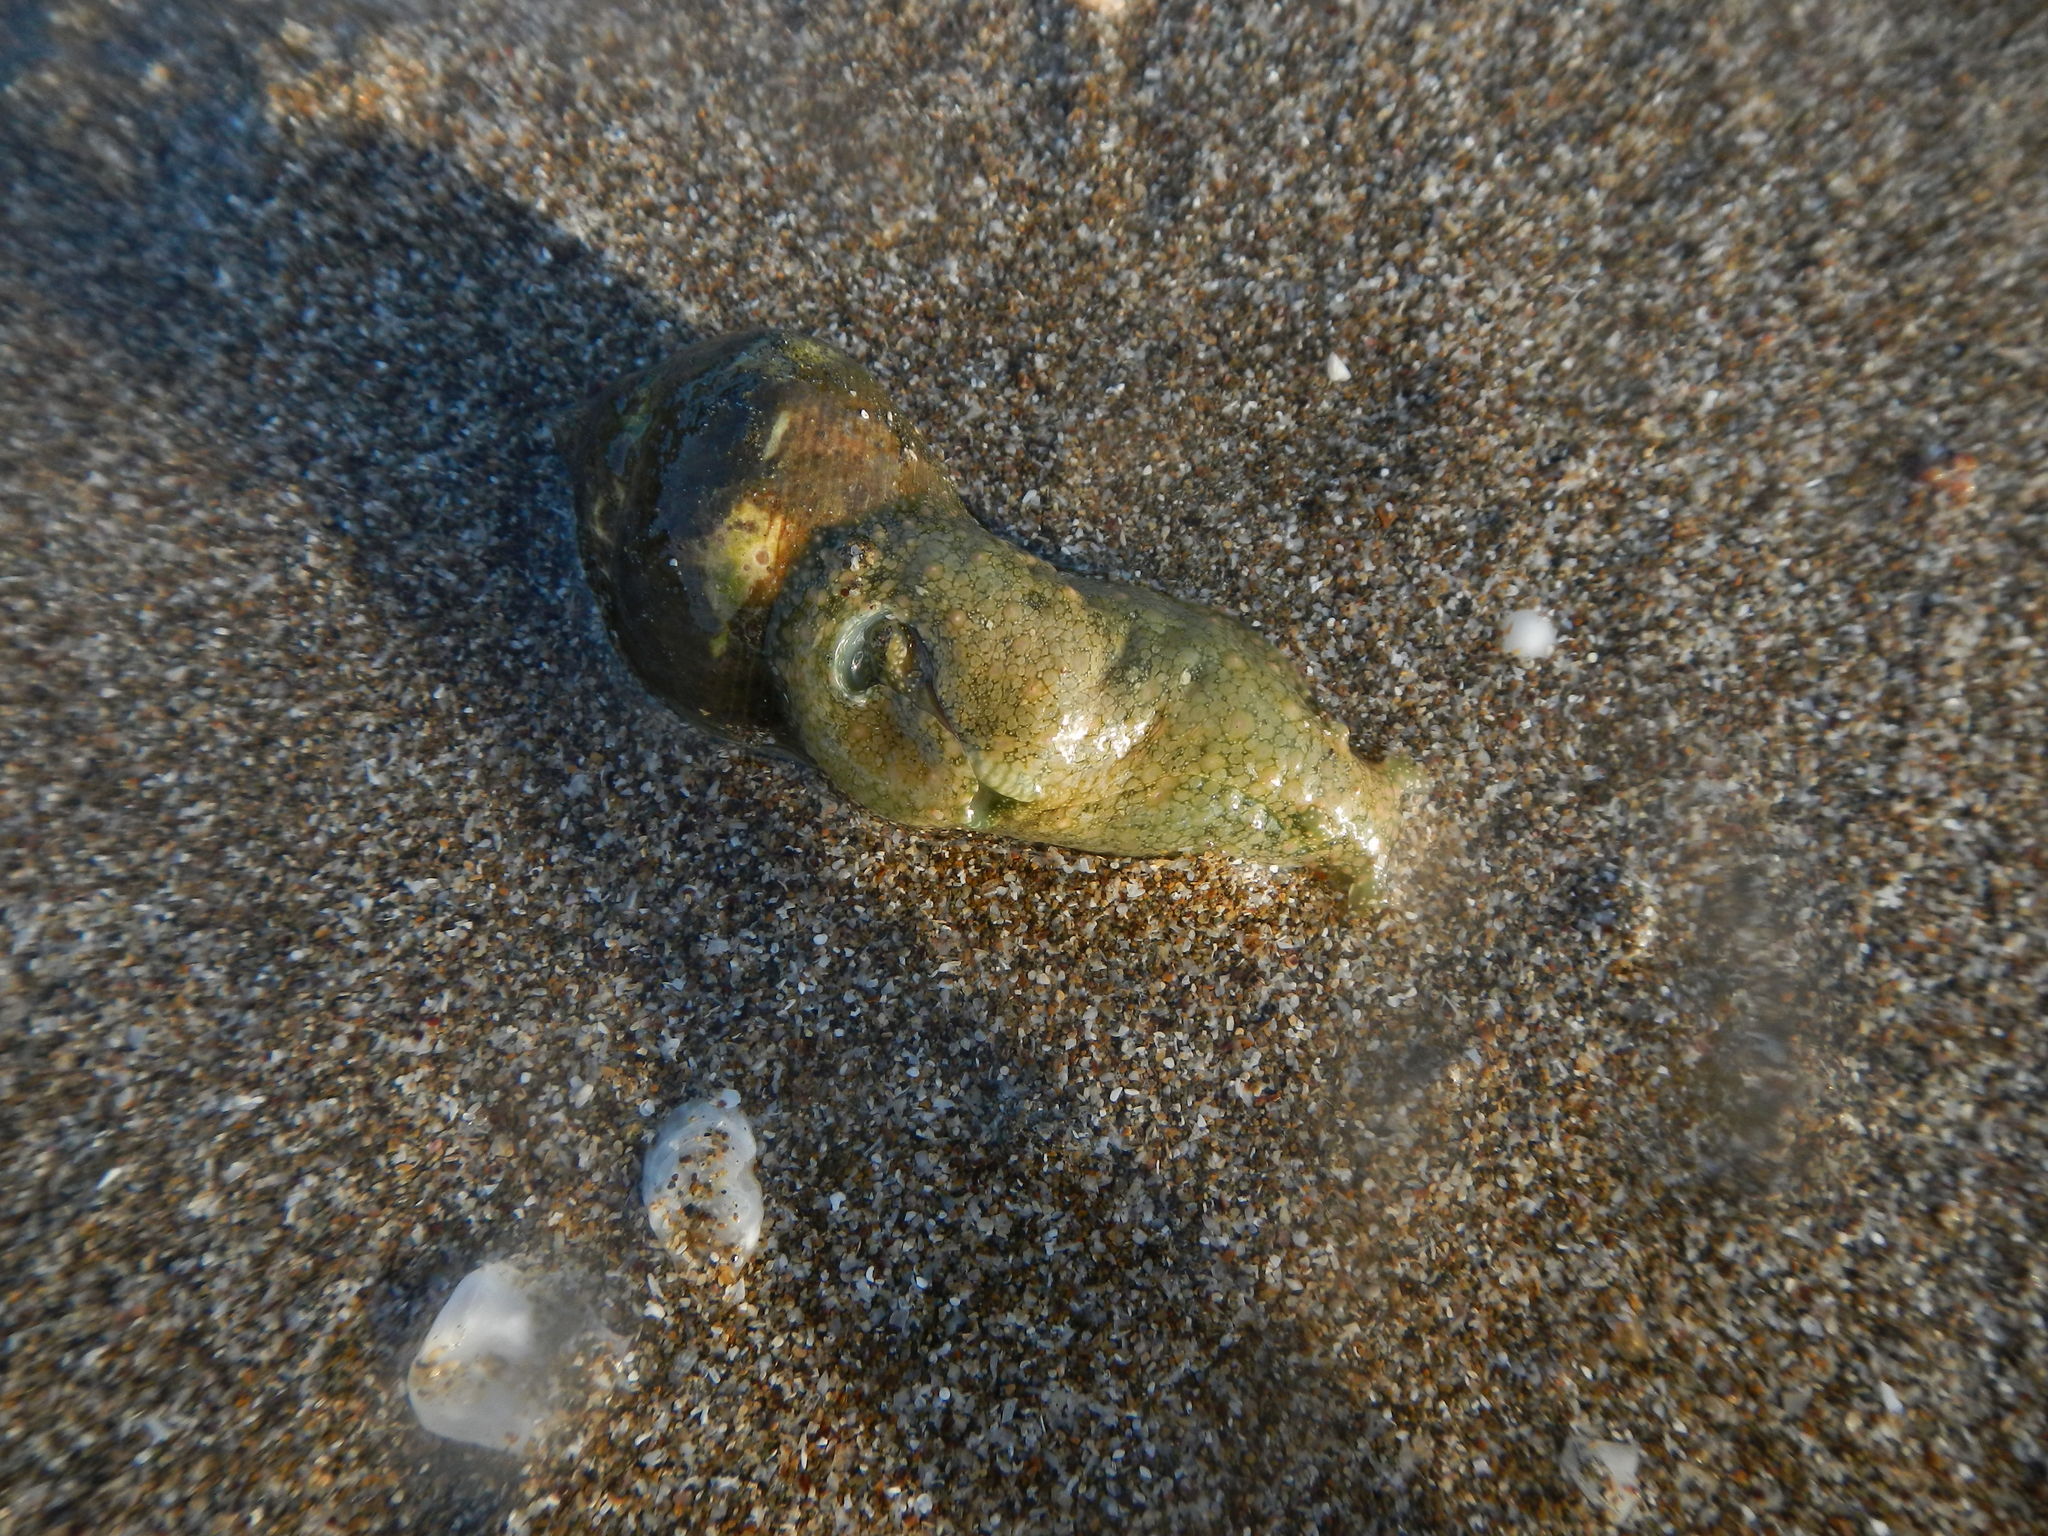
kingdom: Animalia
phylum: Mollusca
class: Gastropoda
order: Aplysiida
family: Aplysiidae
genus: Dolabrifera
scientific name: Dolabrifera nicaraguana
